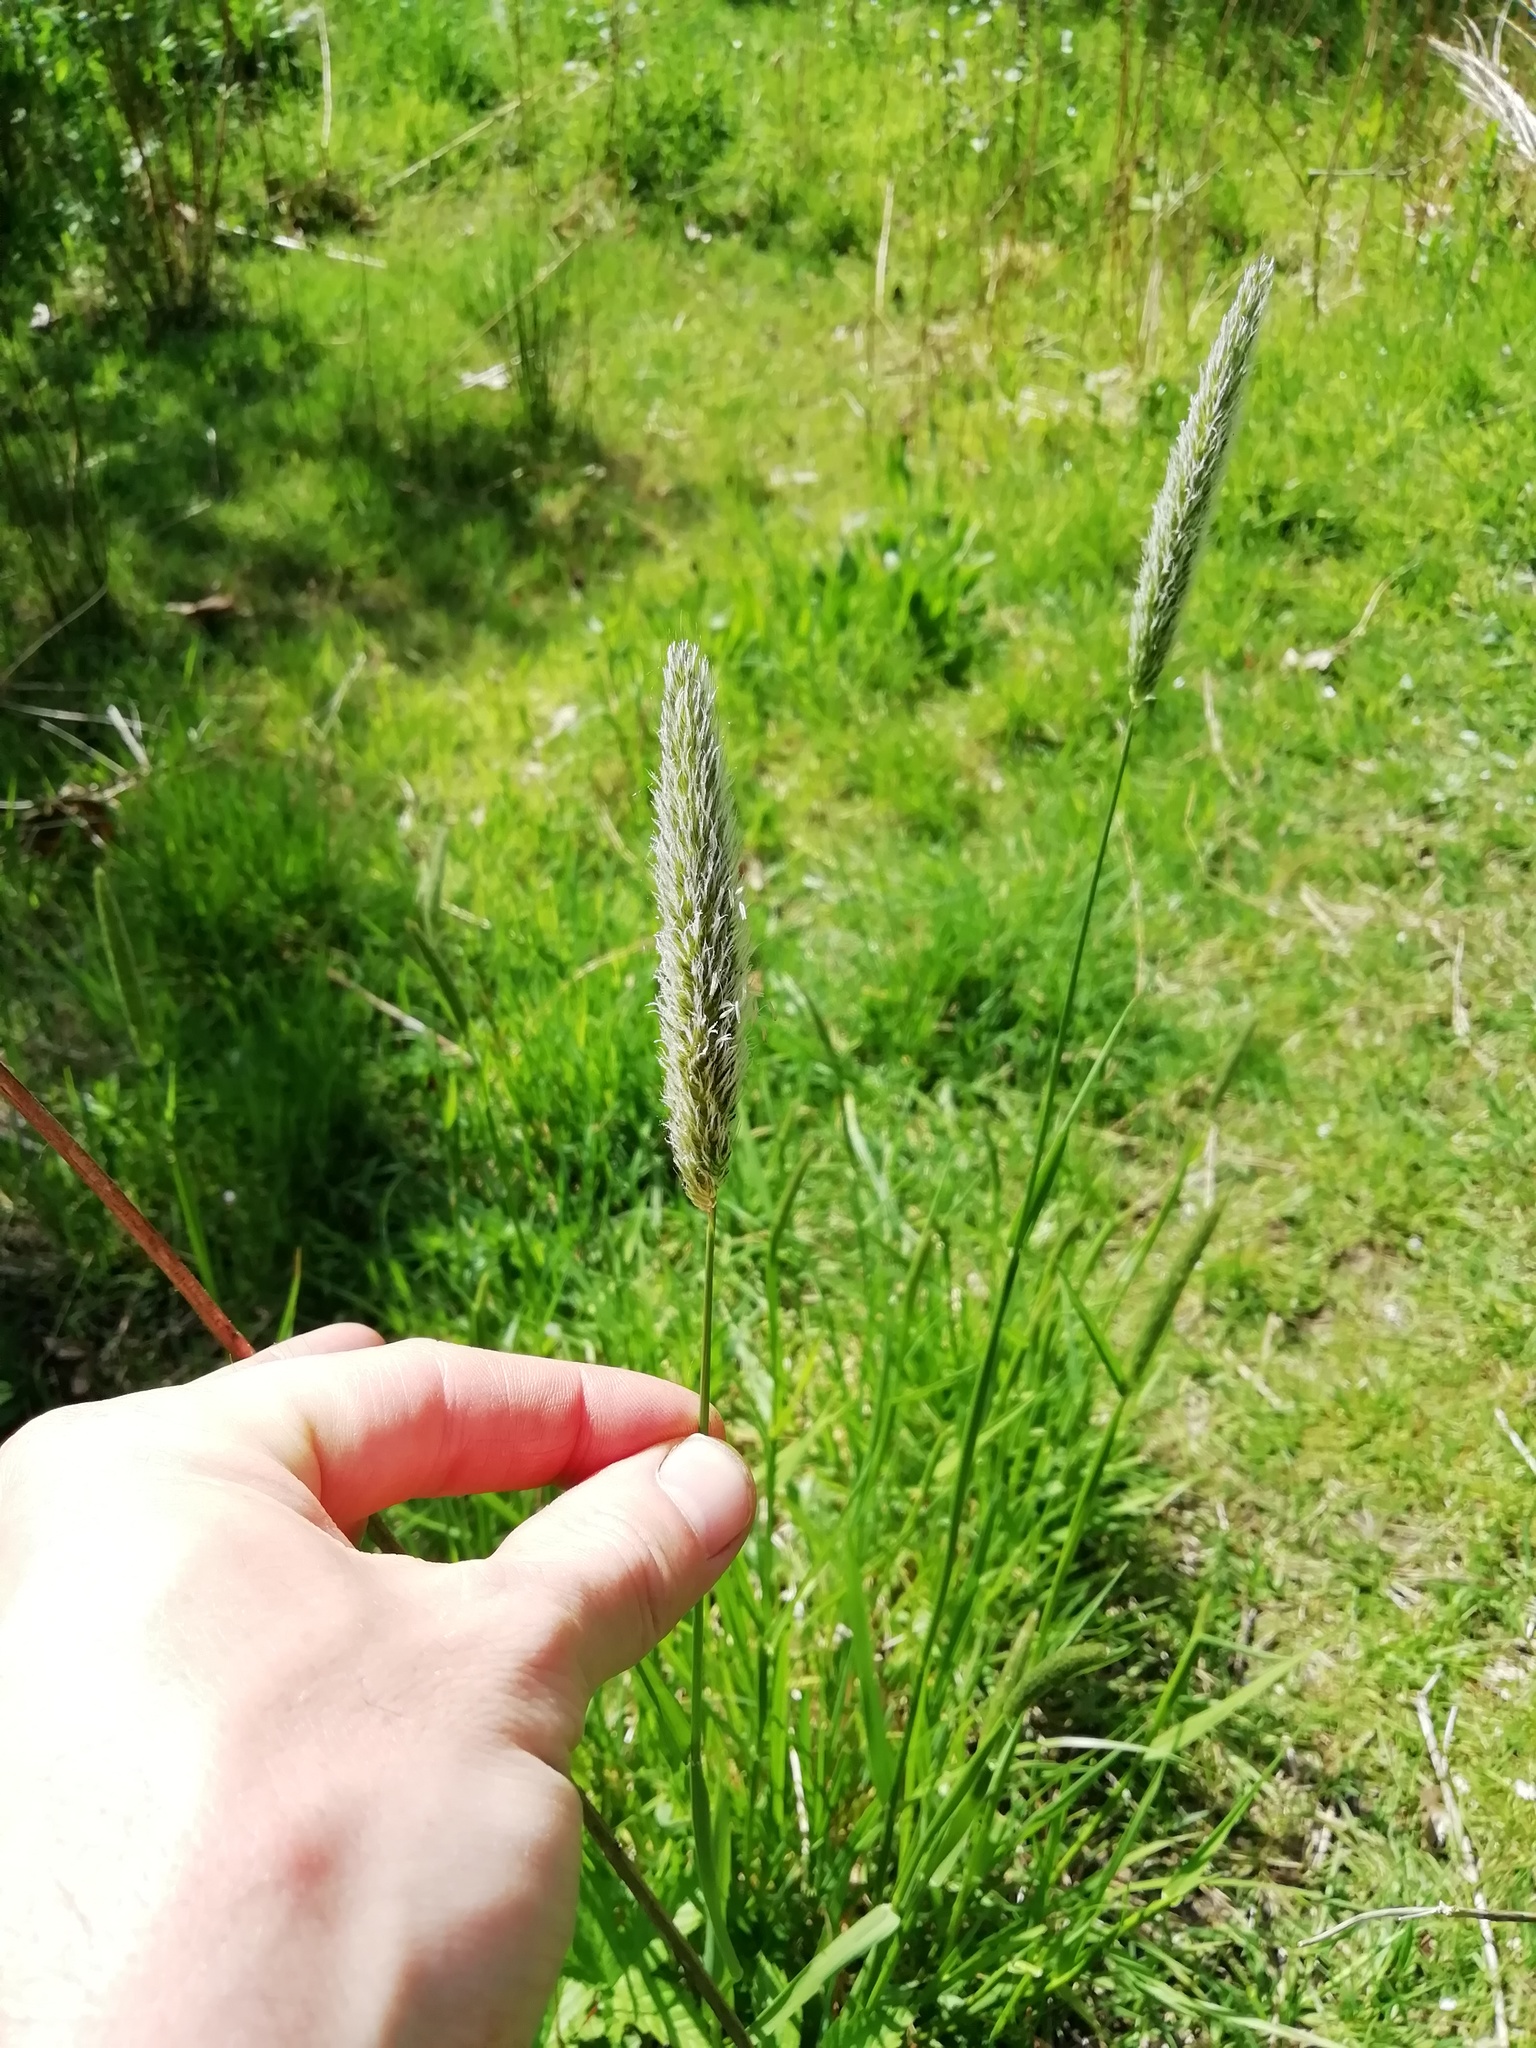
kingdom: Plantae
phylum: Tracheophyta
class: Liliopsida
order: Poales
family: Poaceae
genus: Alopecurus
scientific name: Alopecurus pratensis
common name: Meadow foxtail
